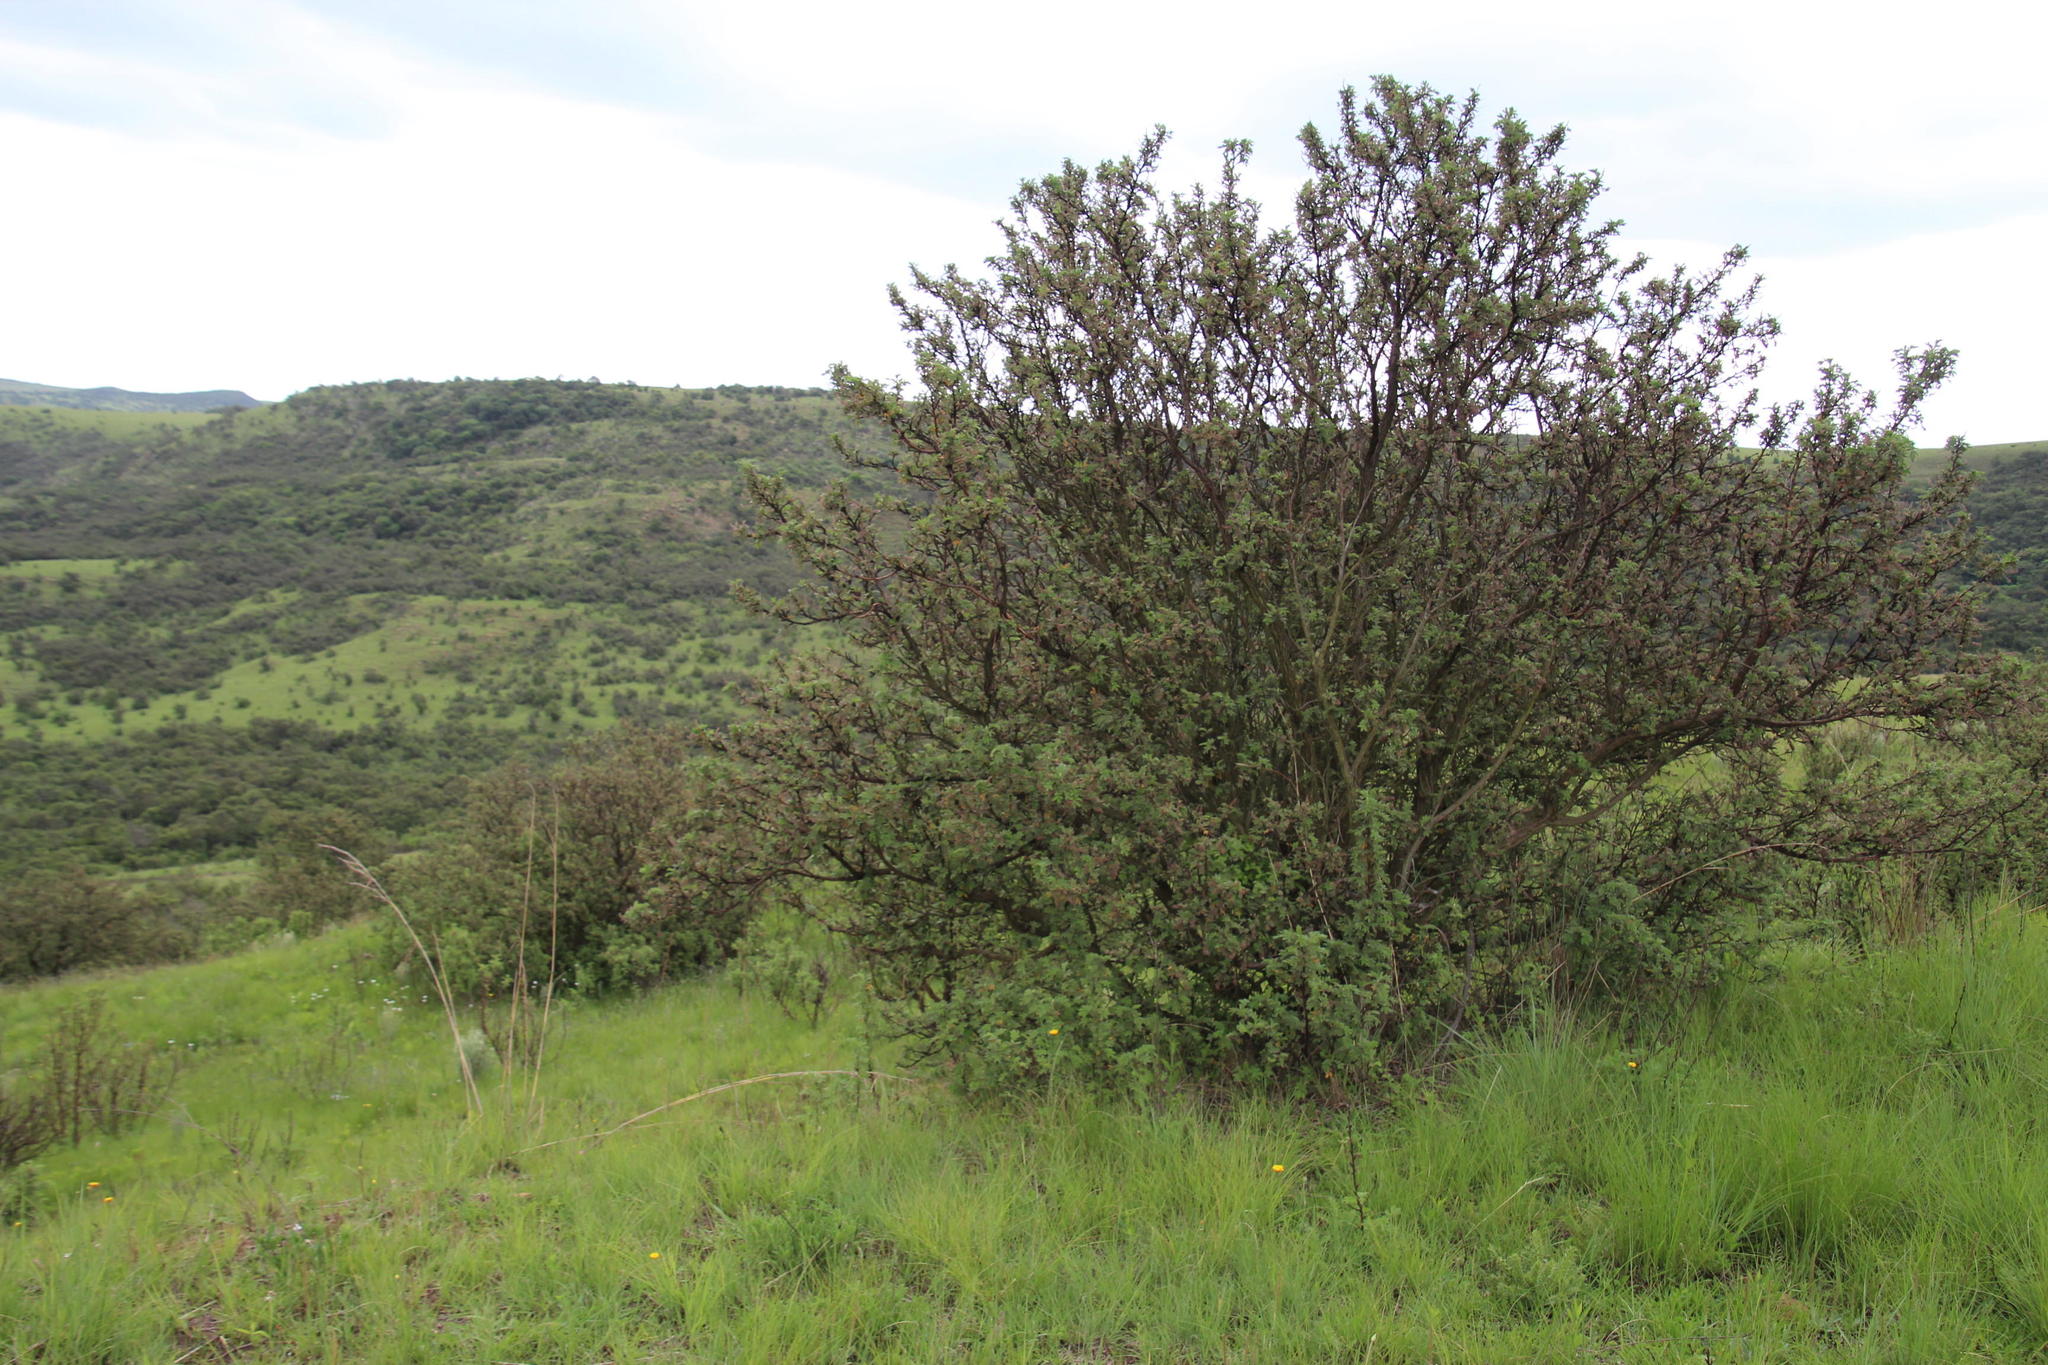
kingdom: Plantae
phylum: Tracheophyta
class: Magnoliopsida
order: Rosales
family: Rosaceae
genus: Leucosidea
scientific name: Leucosidea sericea
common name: Oldwood
